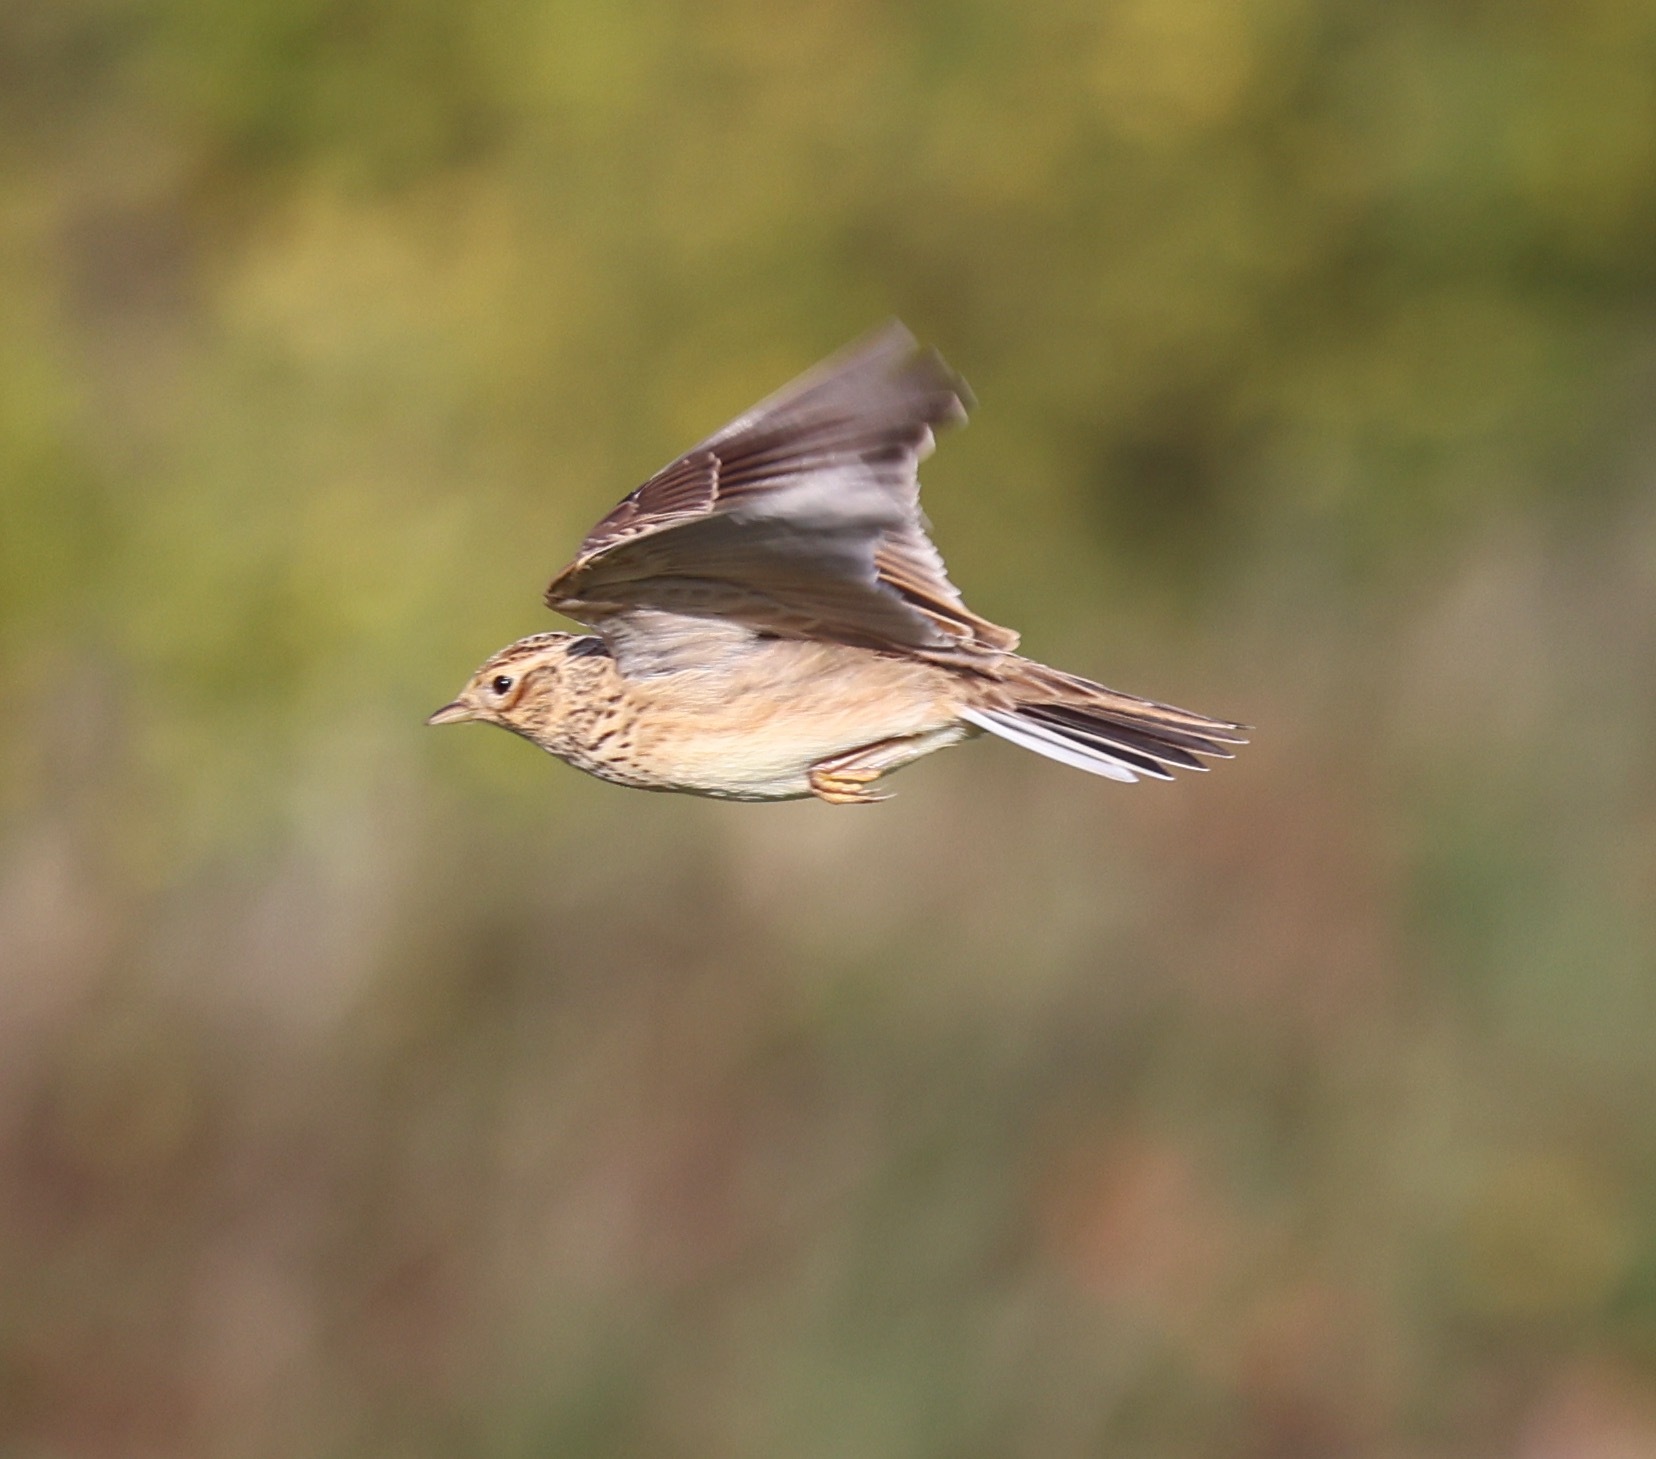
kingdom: Animalia
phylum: Chordata
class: Aves
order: Passeriformes
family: Alaudidae
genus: Alauda
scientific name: Alauda arvensis
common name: Eurasian skylark
